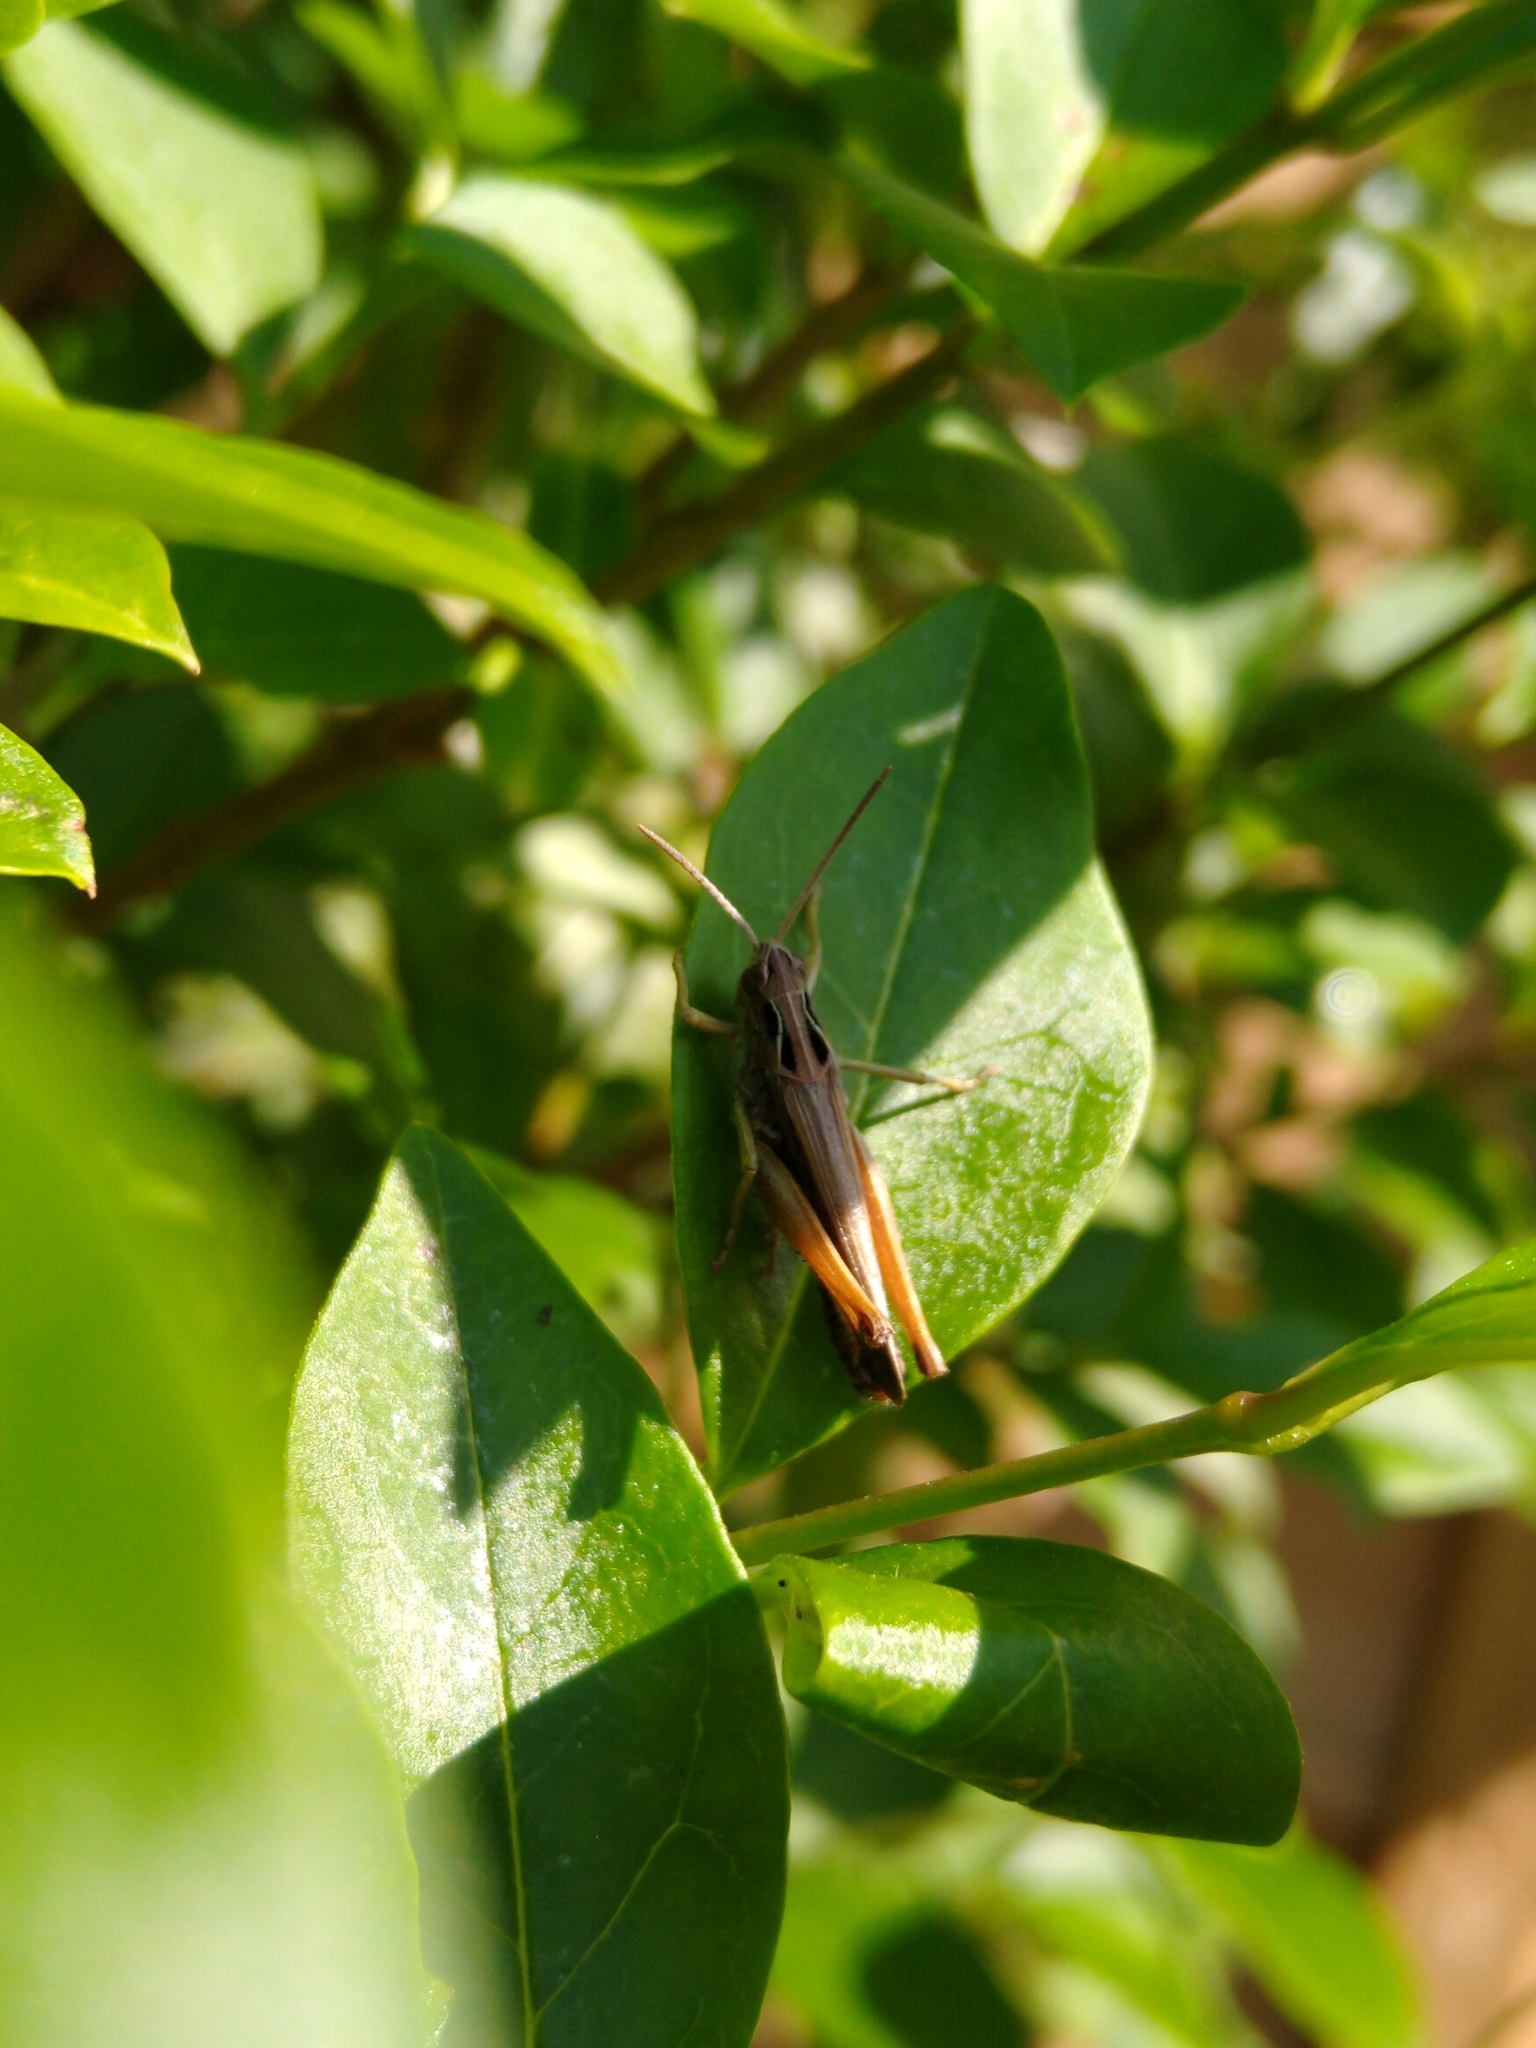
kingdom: Animalia
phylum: Arthropoda
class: Insecta
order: Orthoptera
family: Acrididae
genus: Omocestus
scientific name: Omocestus viridulus
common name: Common green grasshopper
